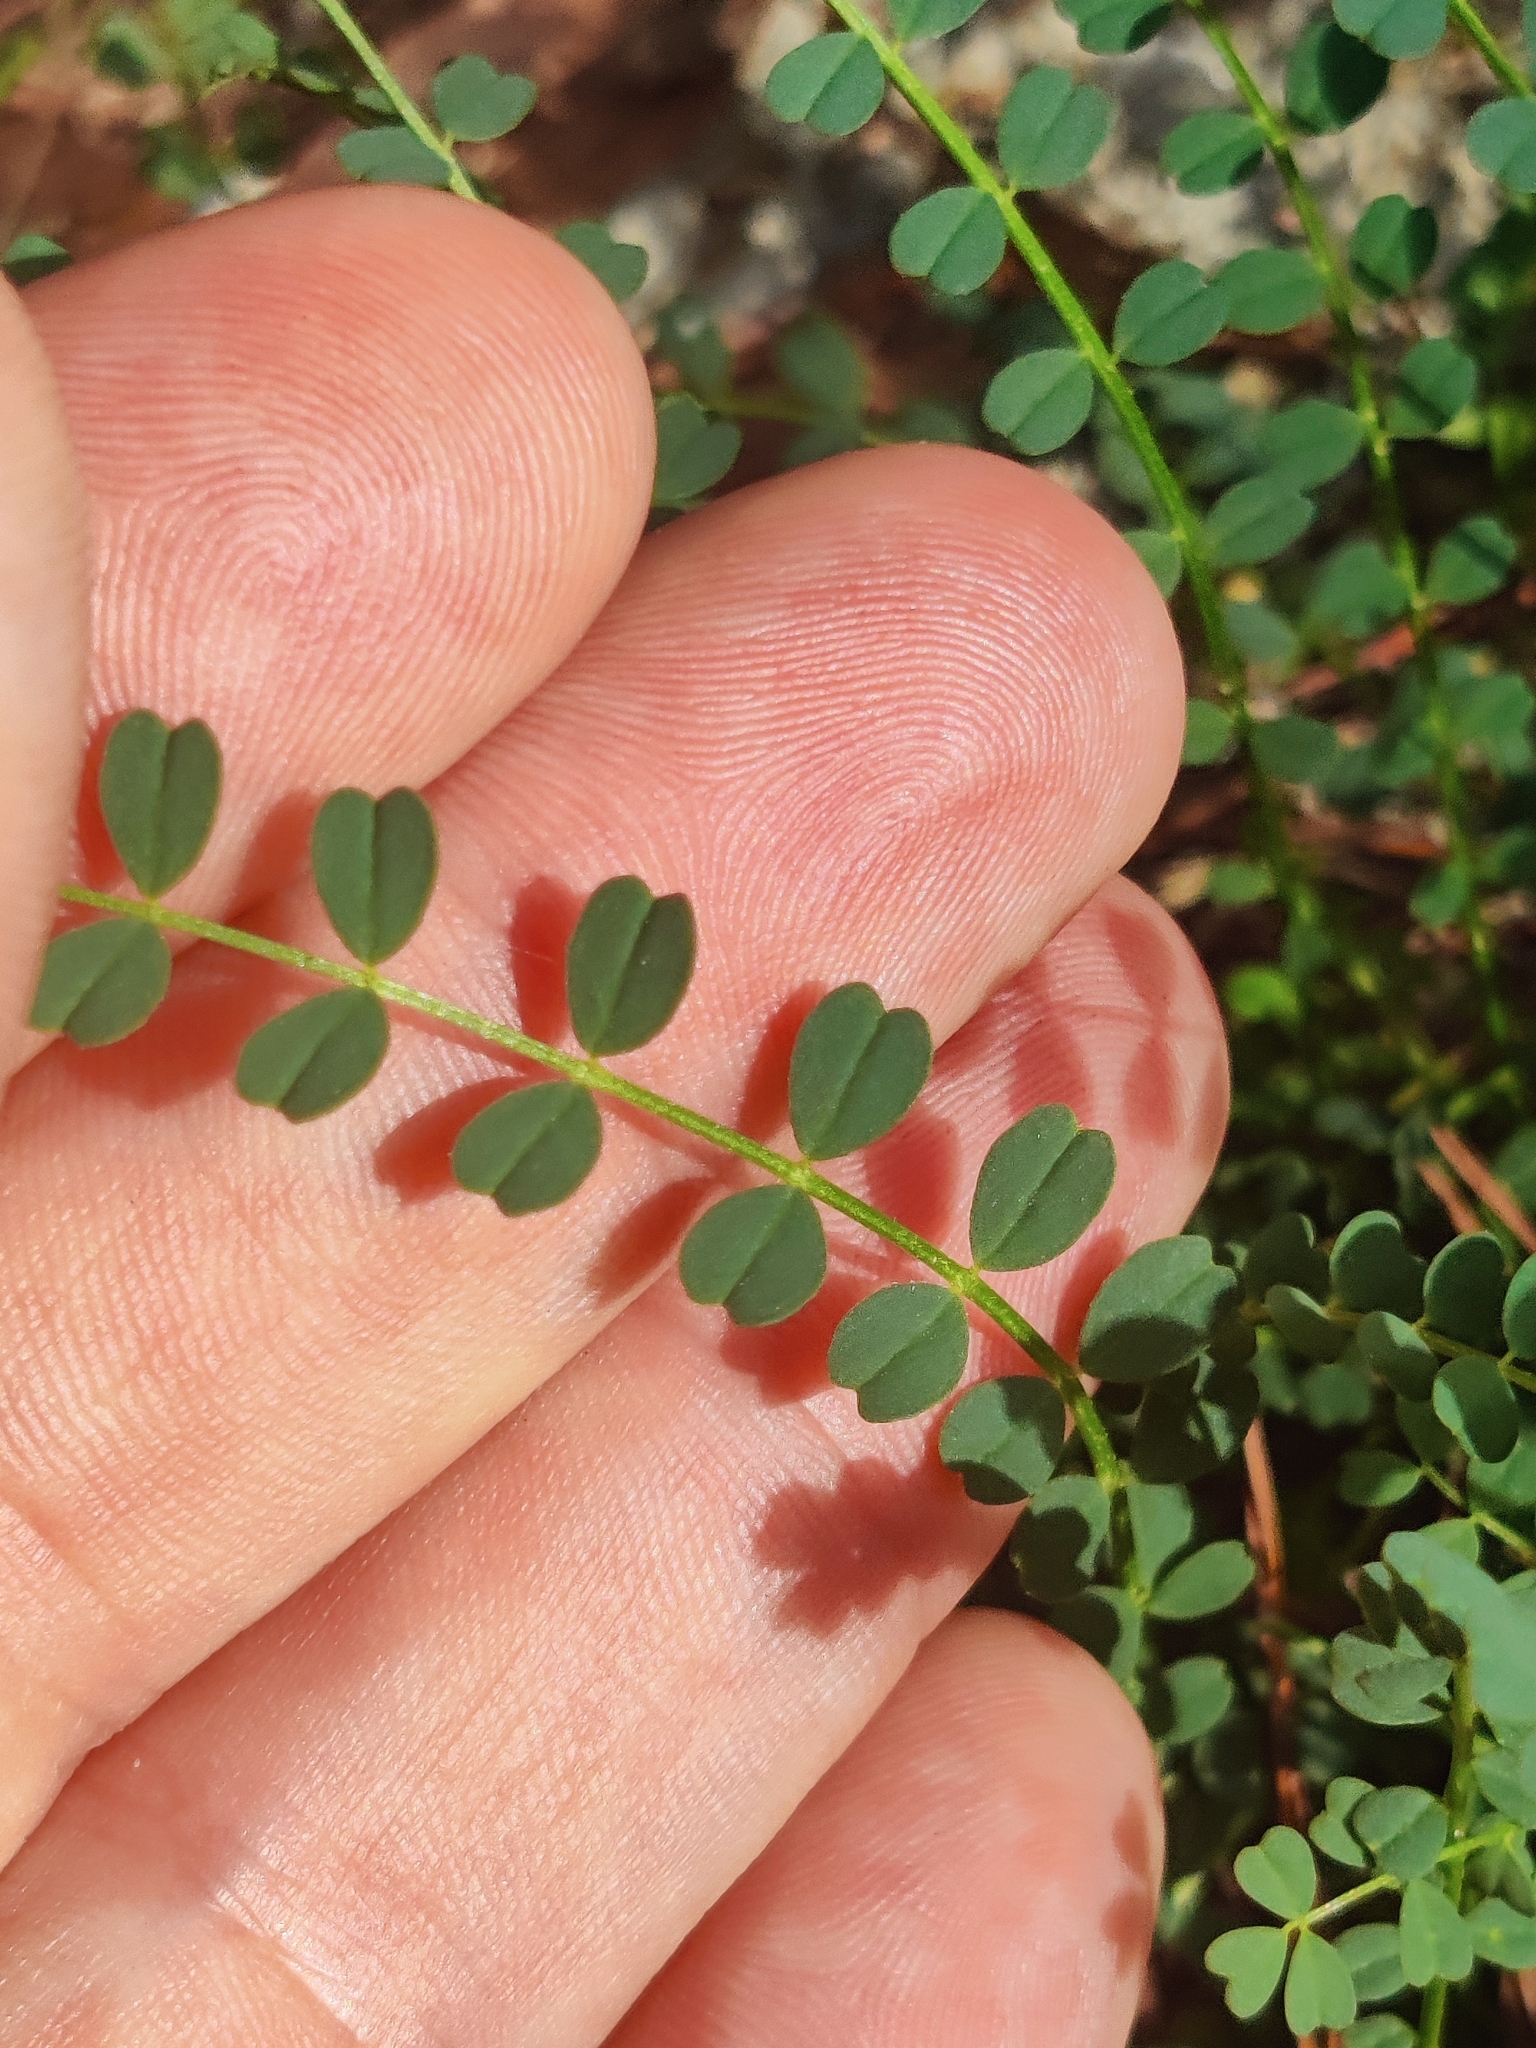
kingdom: Plantae
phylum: Tracheophyta
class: Magnoliopsida
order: Fabales
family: Fabaceae
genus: Astragalus
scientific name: Astragalus obcordatus
